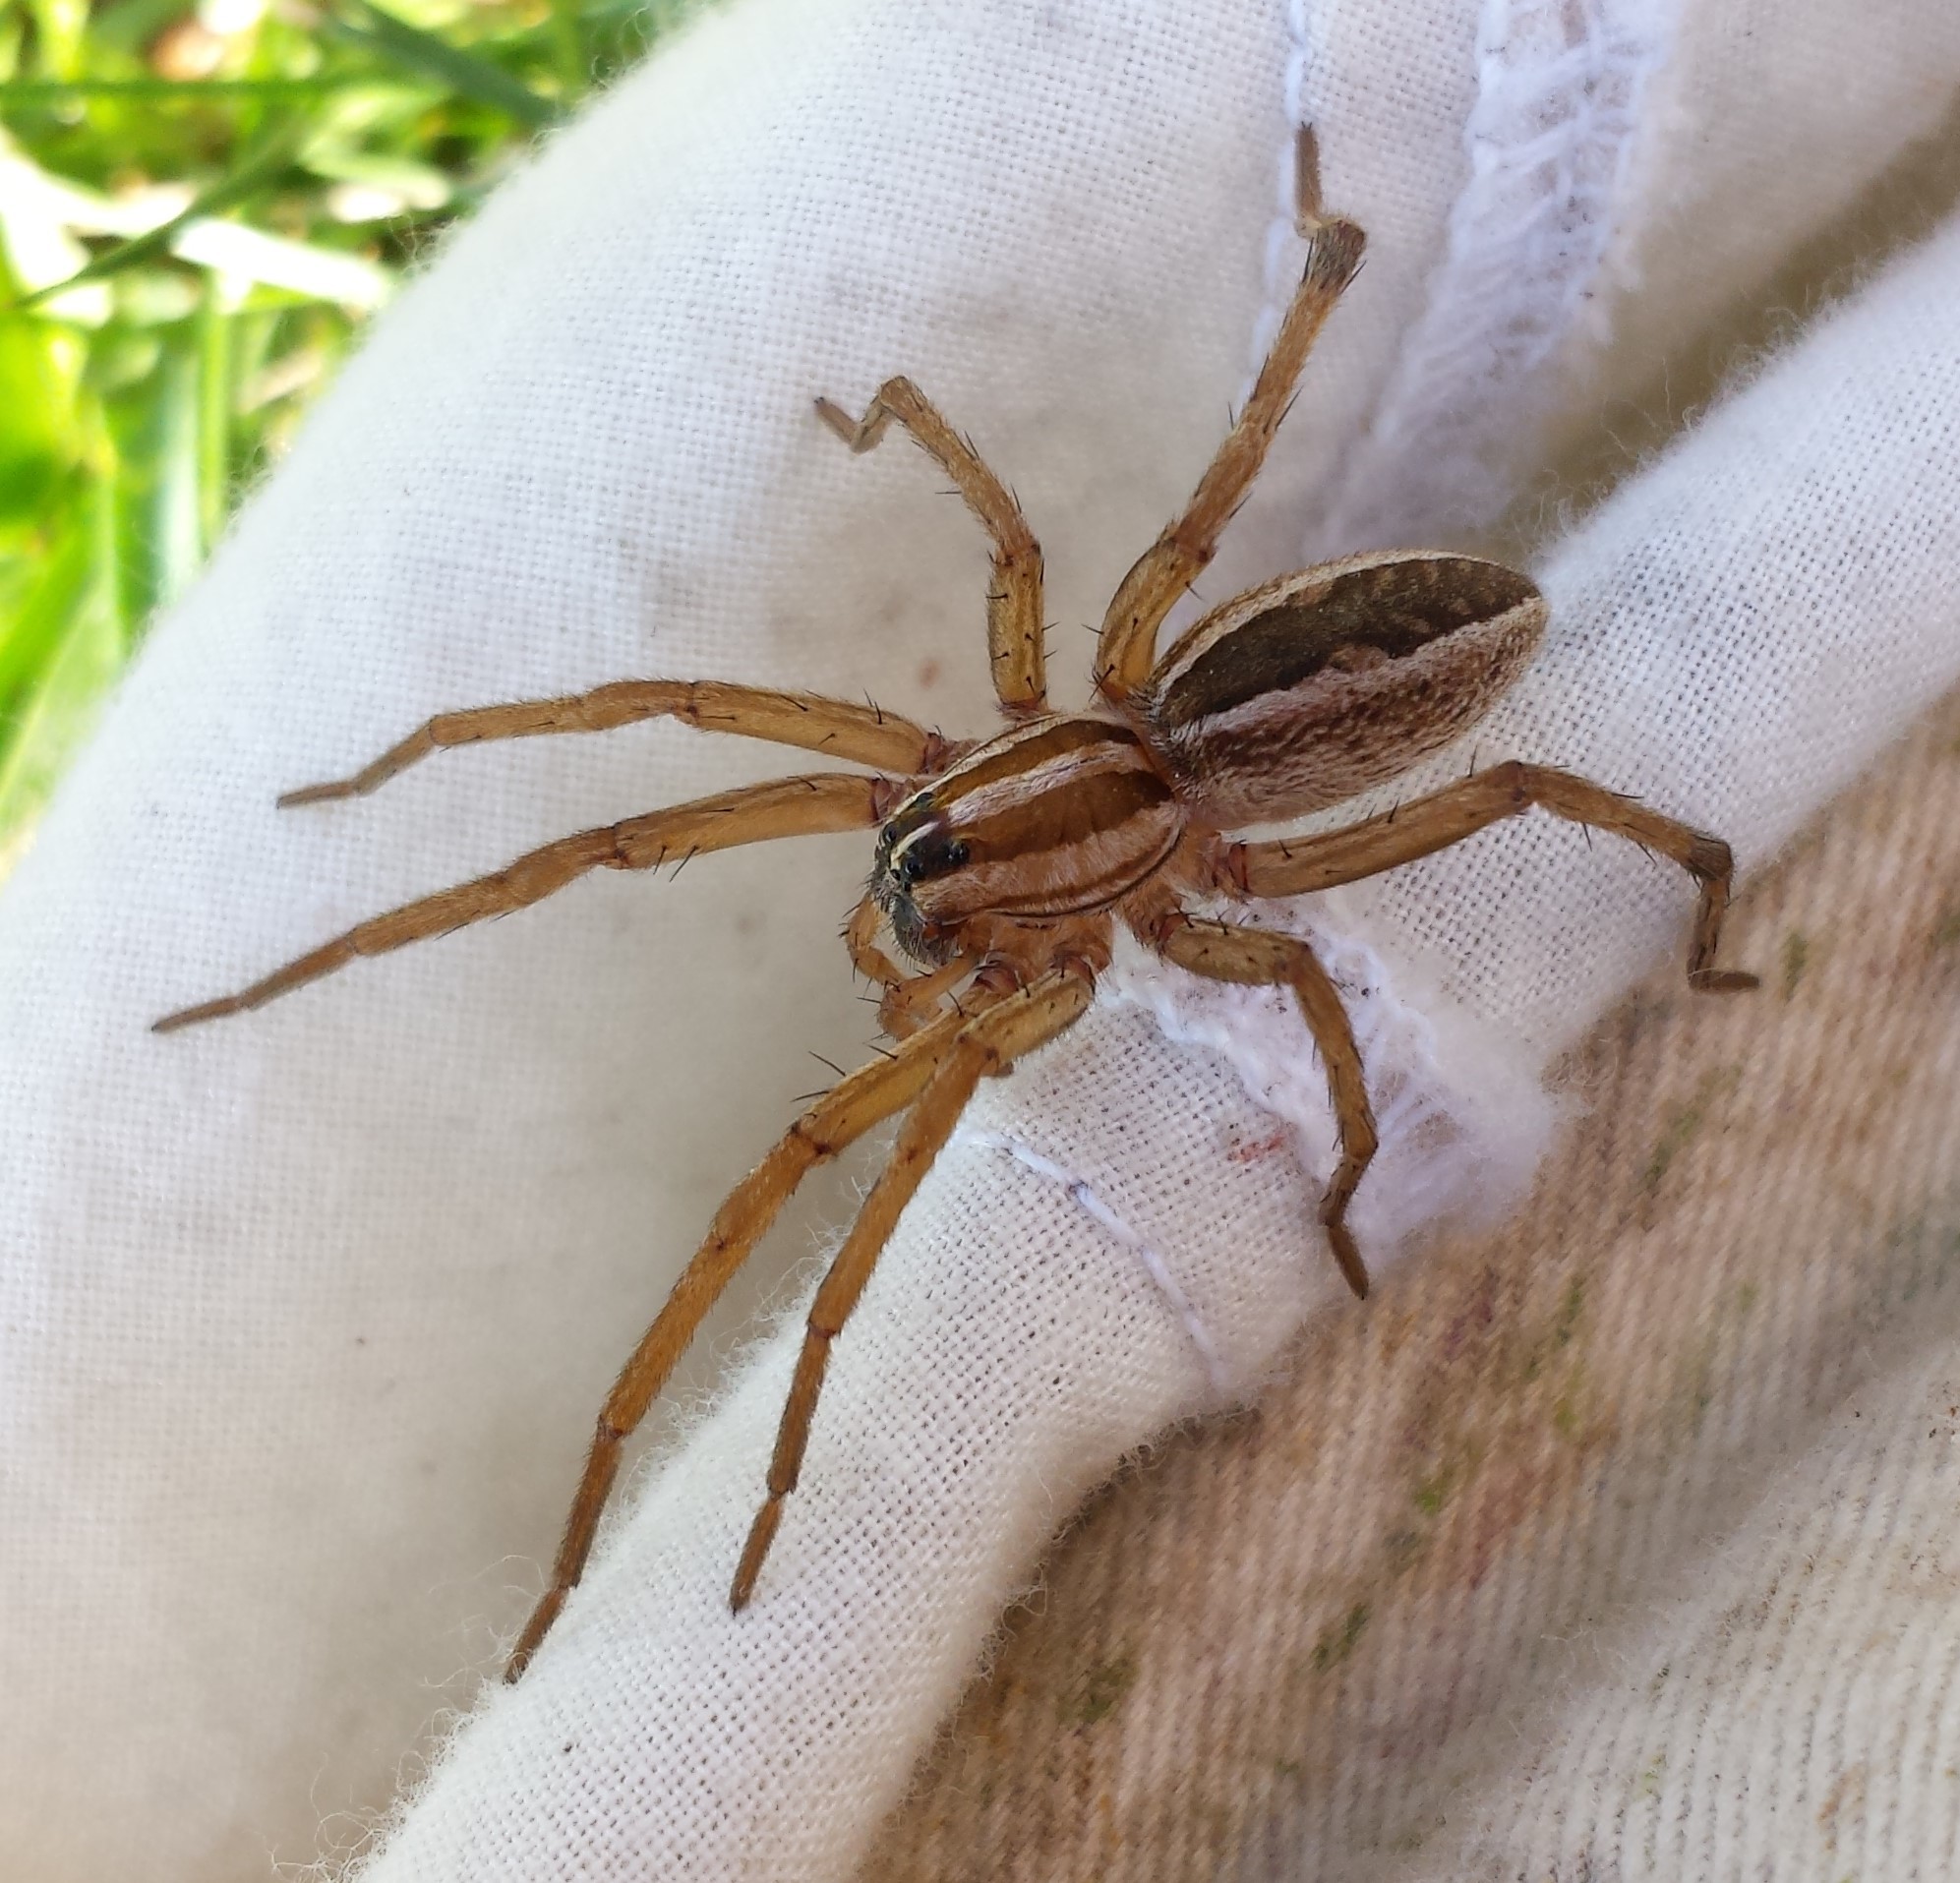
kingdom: Animalia
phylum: Arthropoda
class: Arachnida
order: Araneae
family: Lycosidae
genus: Rabidosa
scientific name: Rabidosa rabida
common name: Rabid wolf spider
